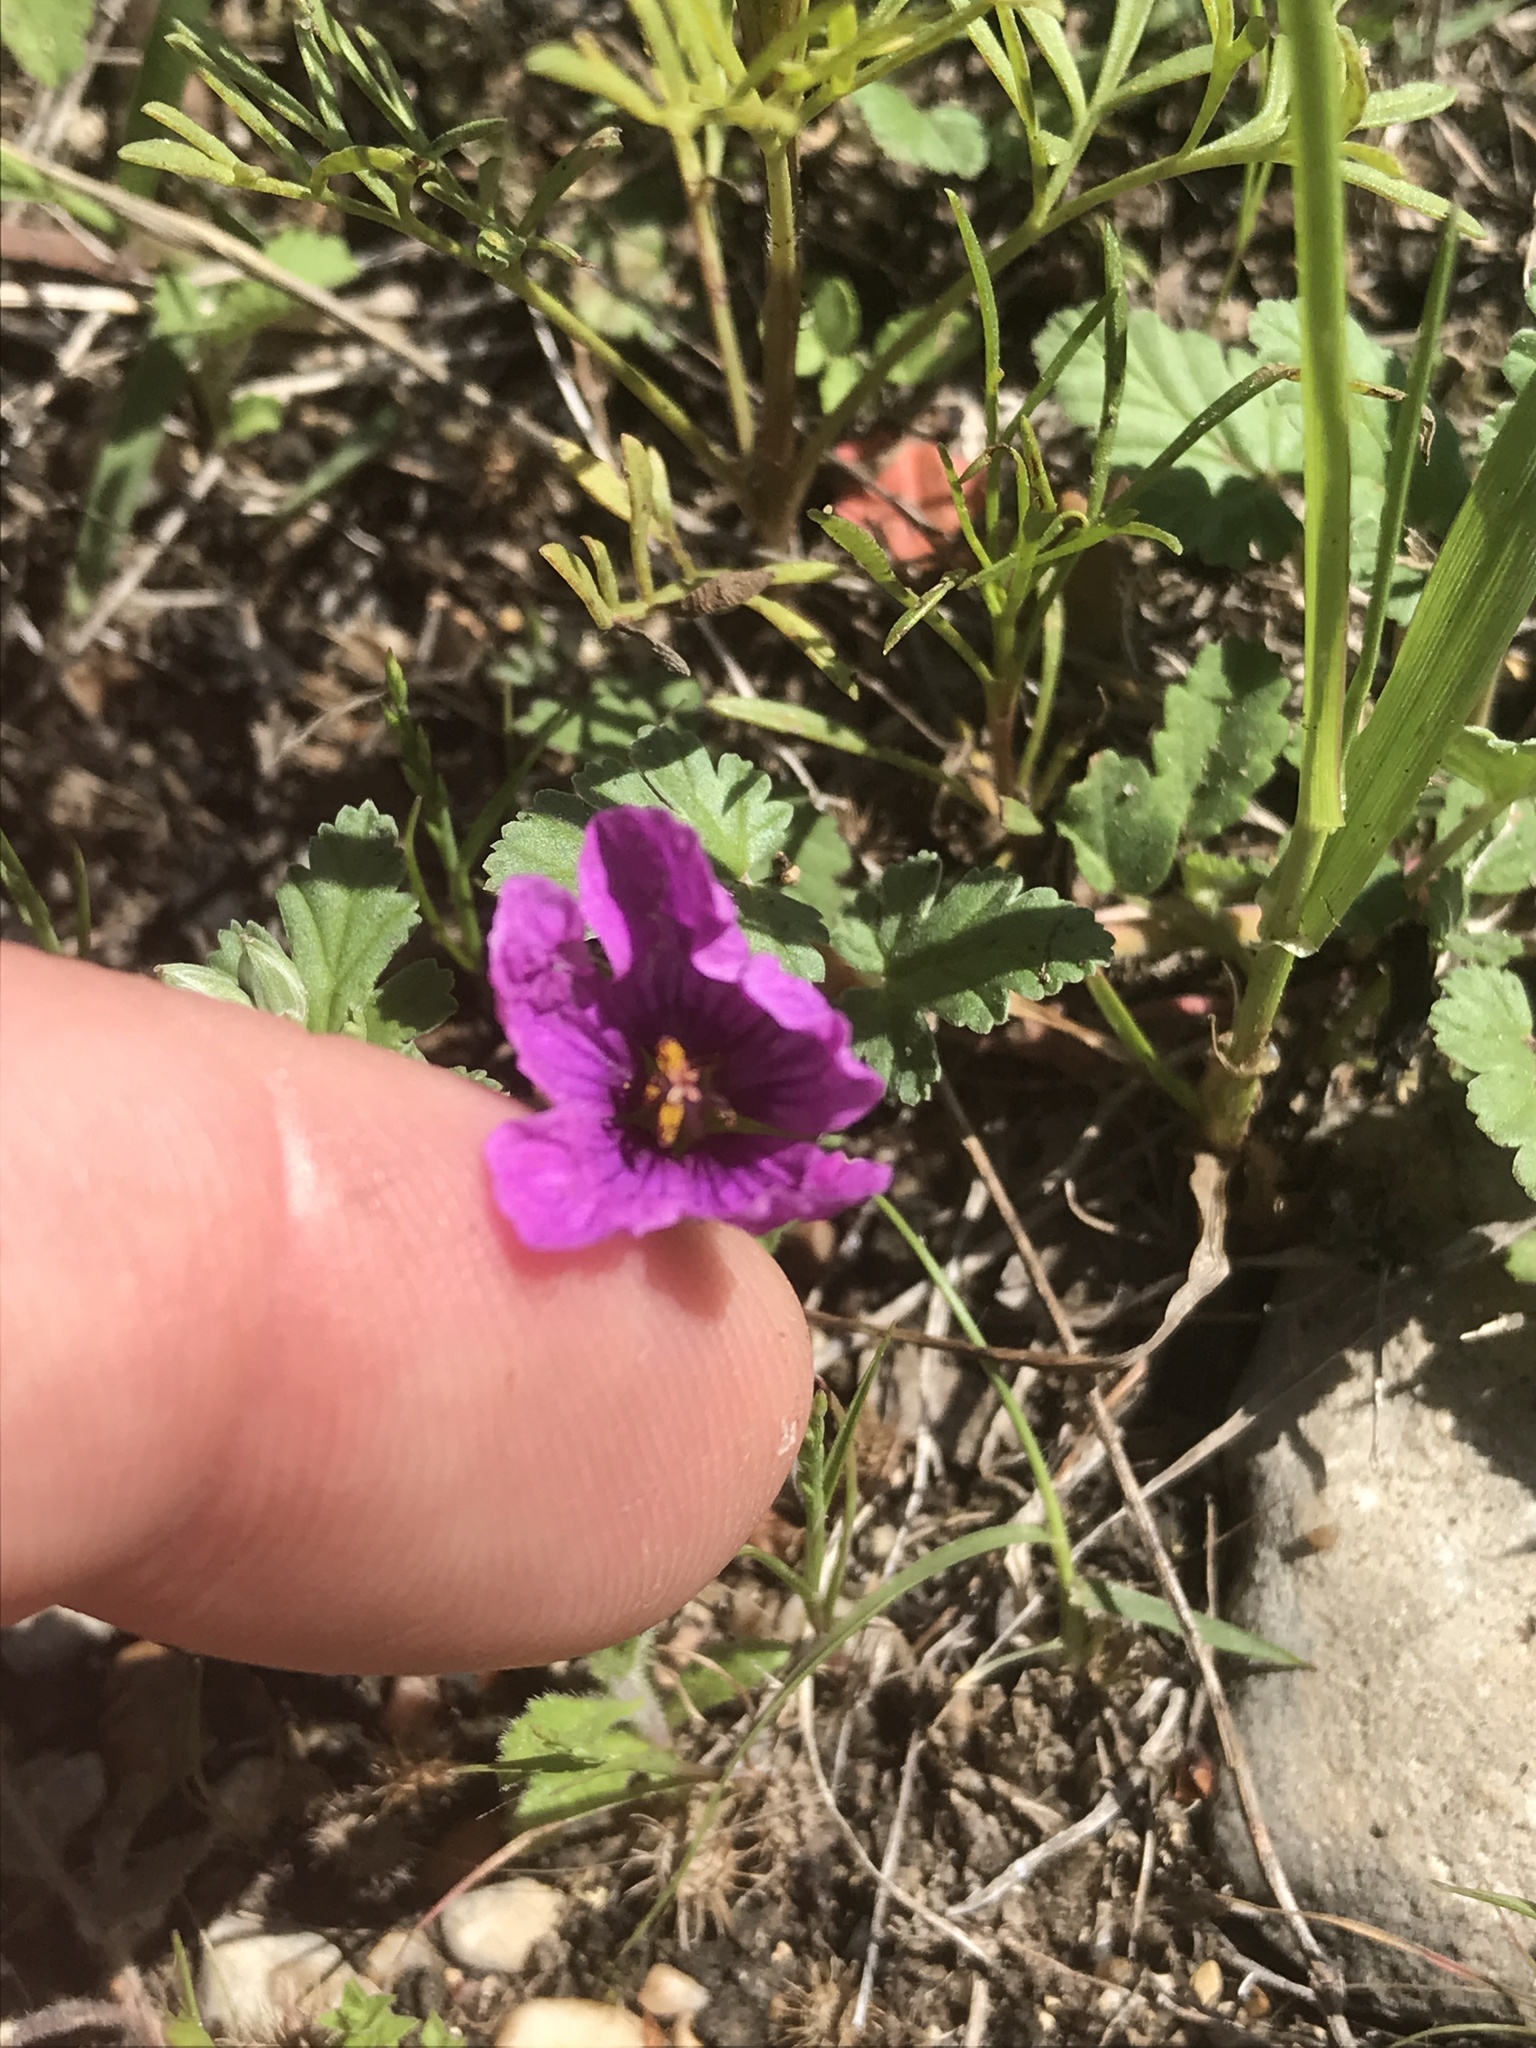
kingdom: Plantae
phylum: Tracheophyta
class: Magnoliopsida
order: Geraniales
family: Geraniaceae
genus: Erodium
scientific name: Erodium texanum
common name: Texas stork's-bill
